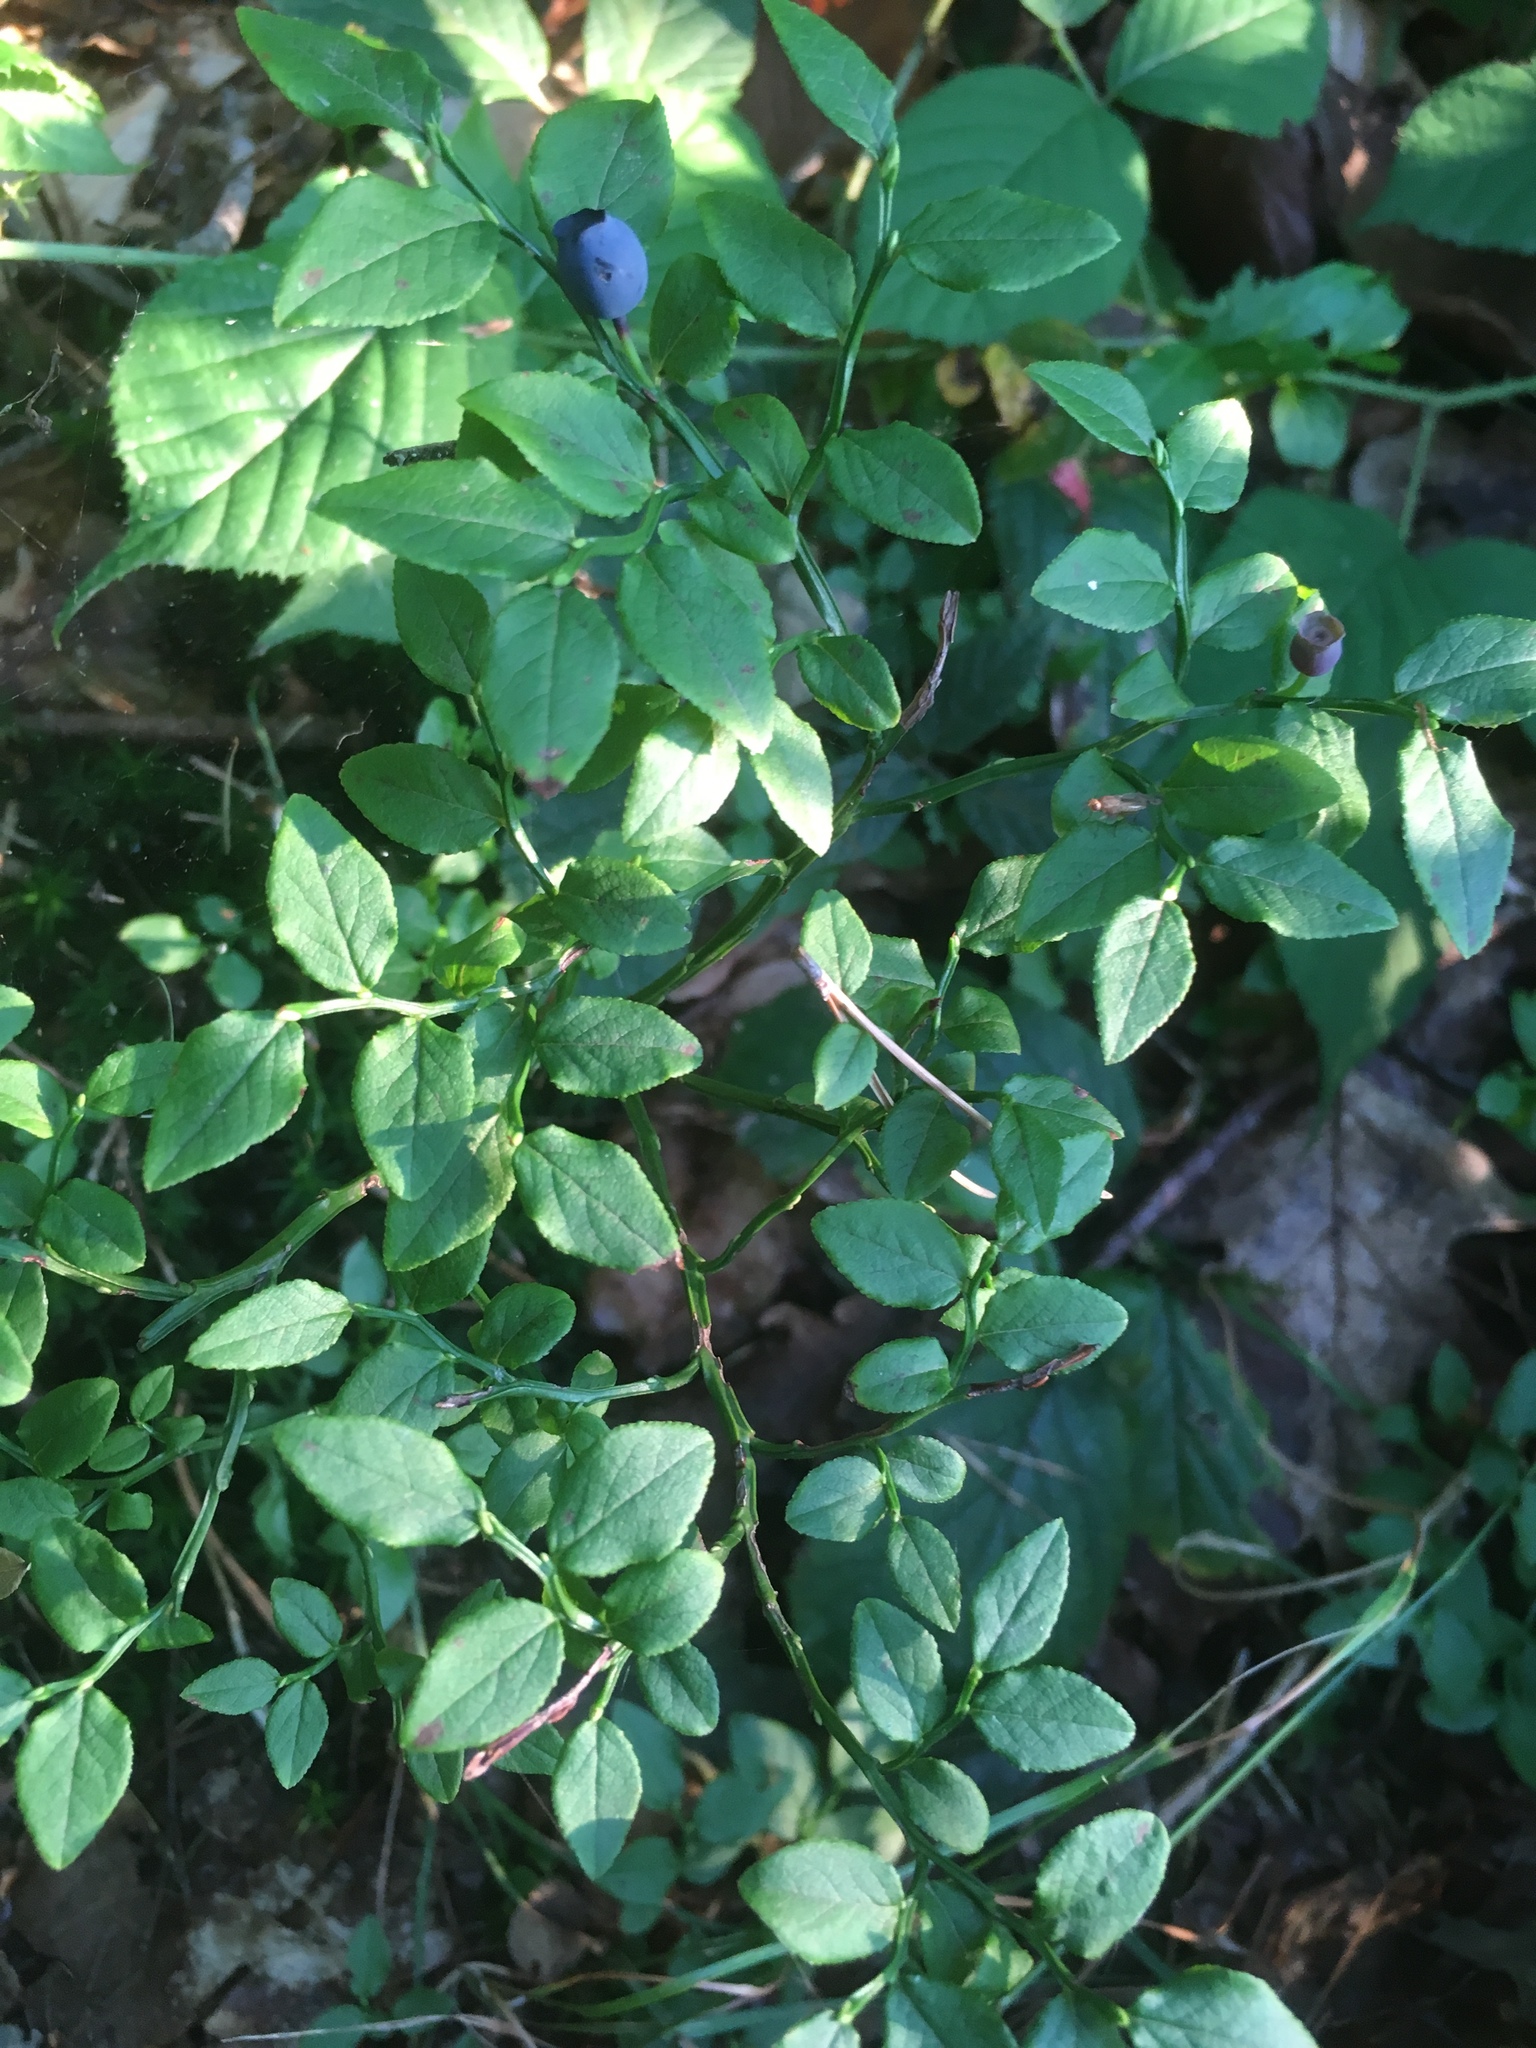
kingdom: Plantae
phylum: Tracheophyta
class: Magnoliopsida
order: Ericales
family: Ericaceae
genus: Vaccinium
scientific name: Vaccinium myrtillus
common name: Bilberry
